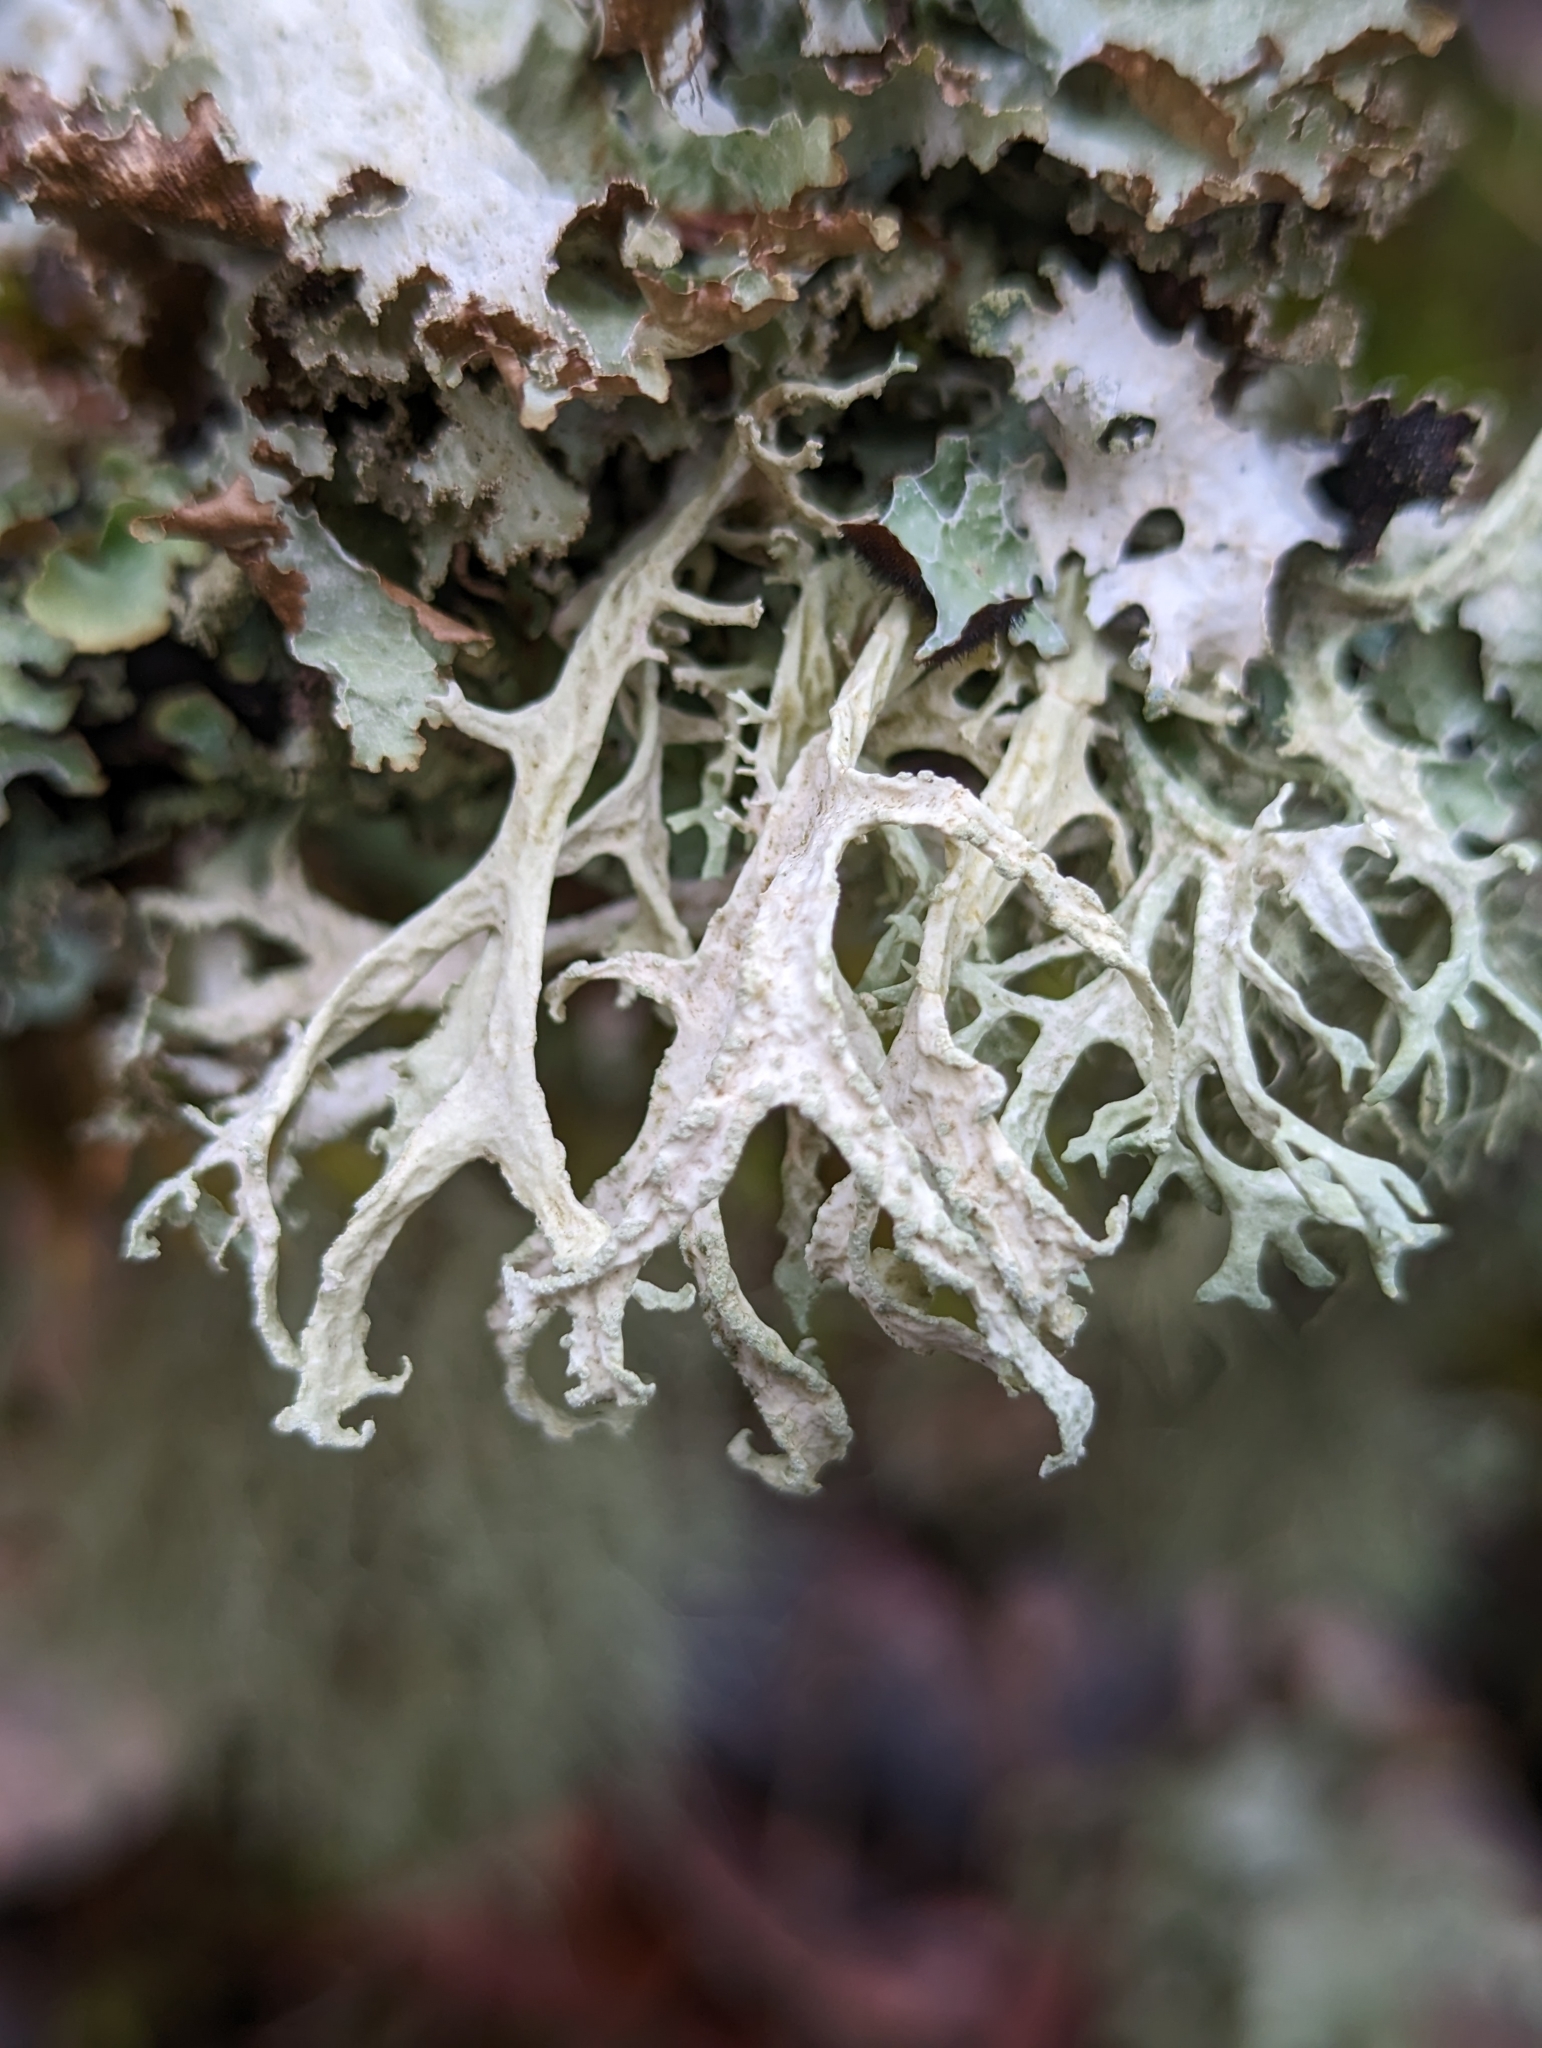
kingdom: Fungi
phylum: Ascomycota
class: Lecanoromycetes
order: Lecanorales
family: Parmeliaceae
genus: Evernia
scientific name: Evernia prunastri
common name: Oak moss
